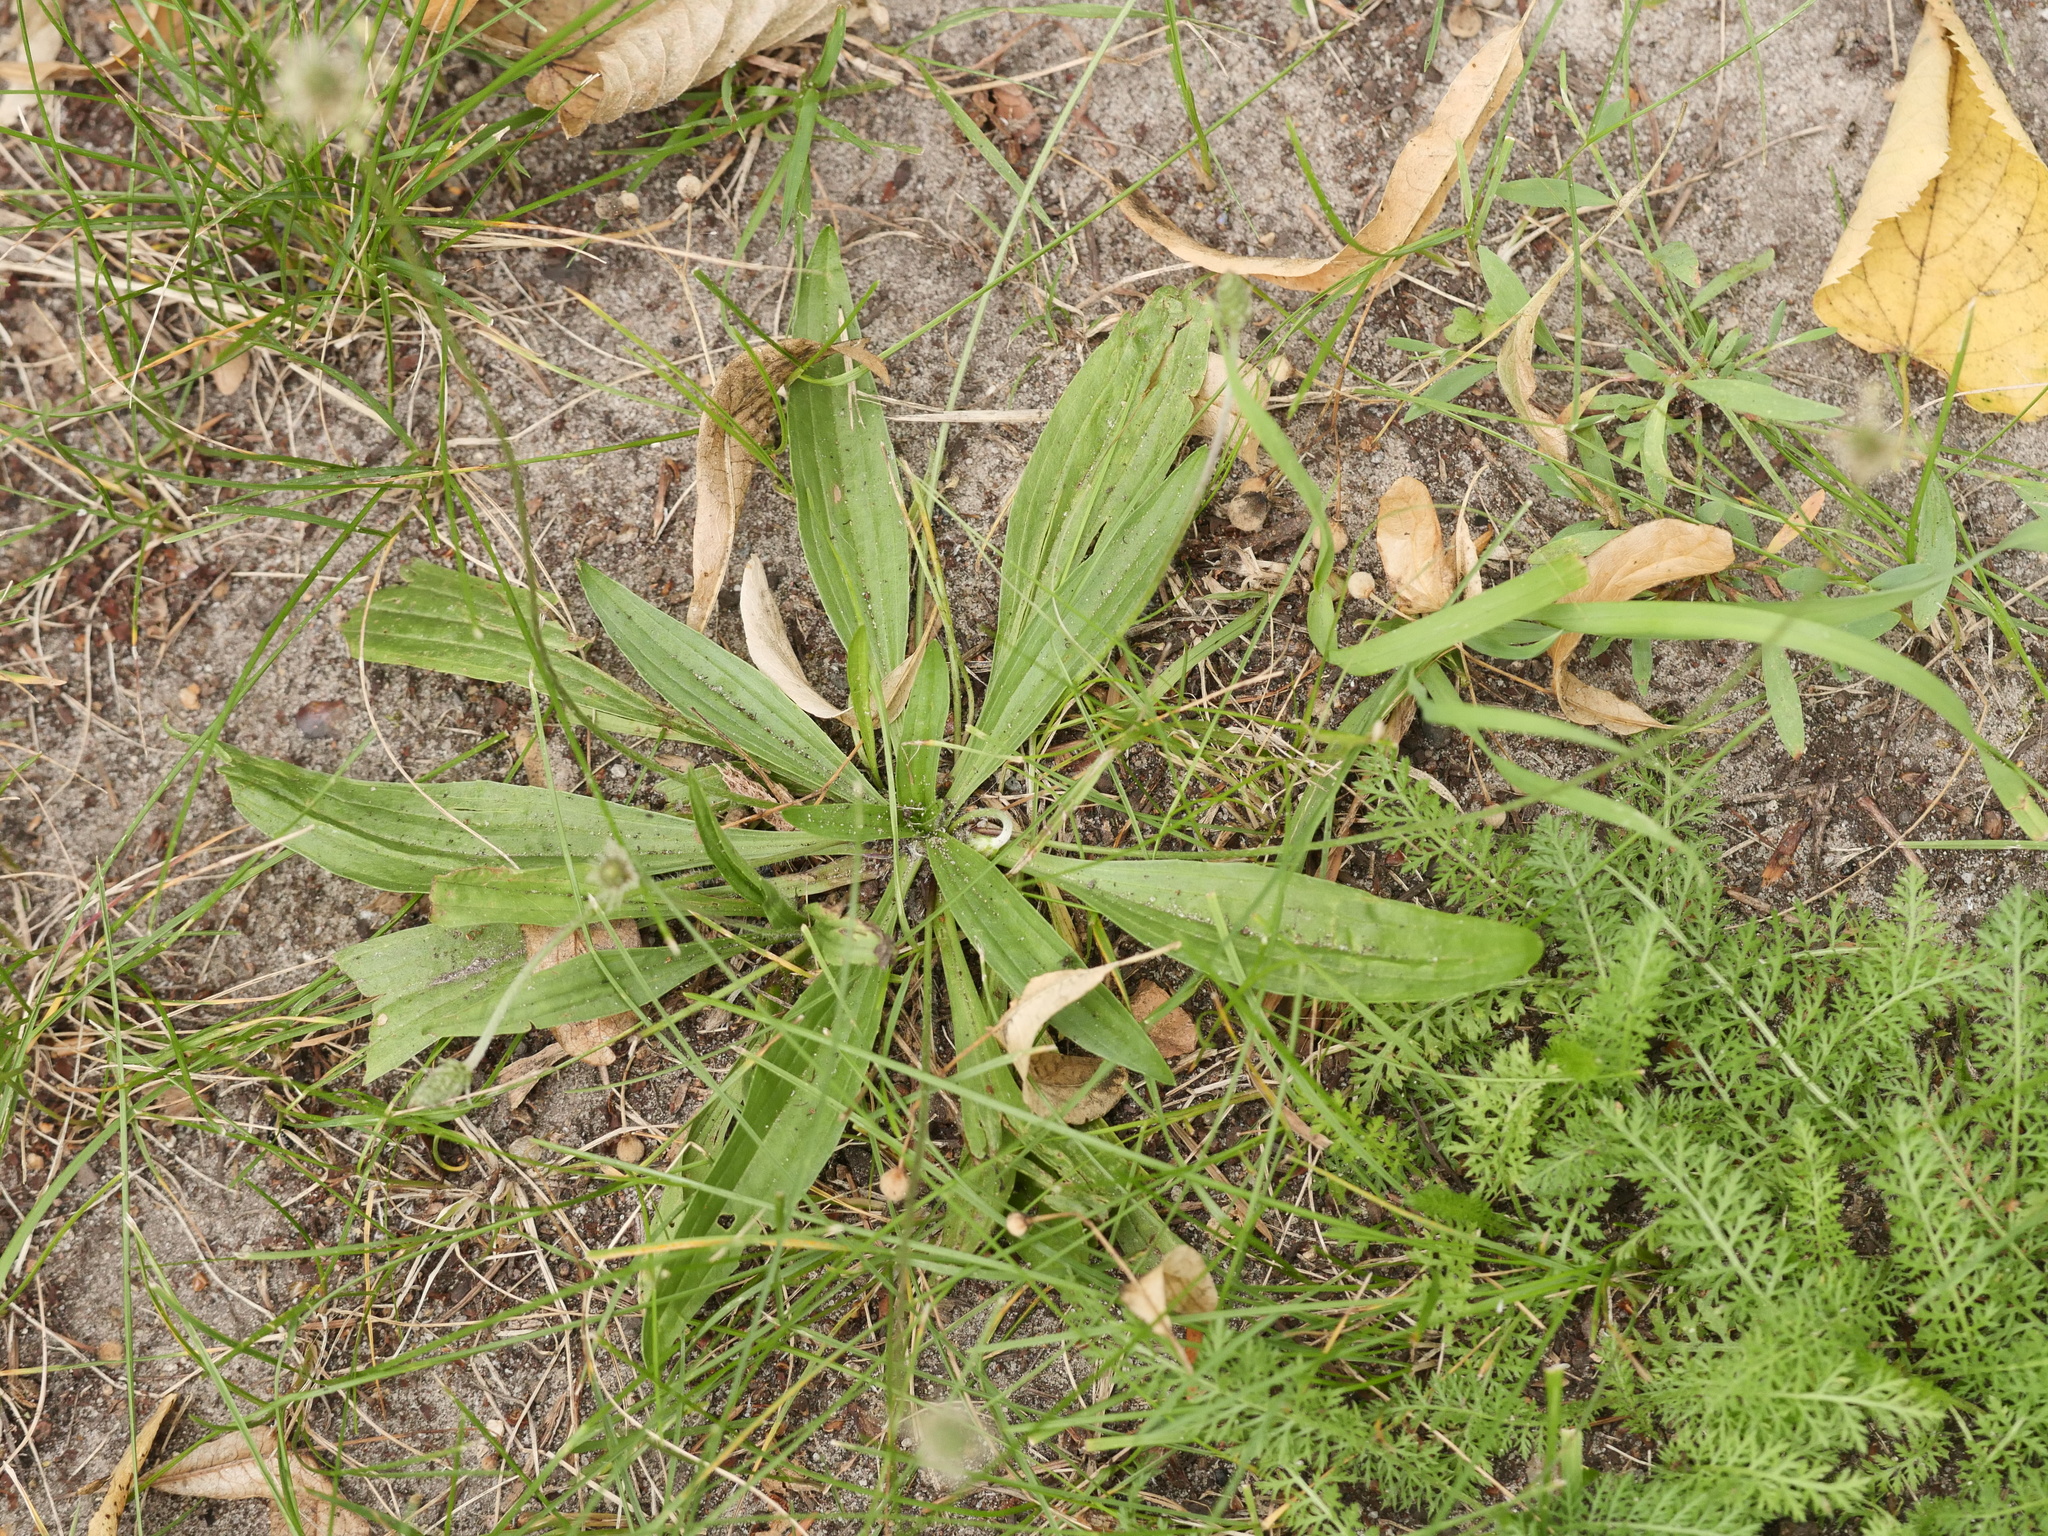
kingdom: Plantae
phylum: Tracheophyta
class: Magnoliopsida
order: Lamiales
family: Plantaginaceae
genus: Plantago
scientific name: Plantago lanceolata
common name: Ribwort plantain
